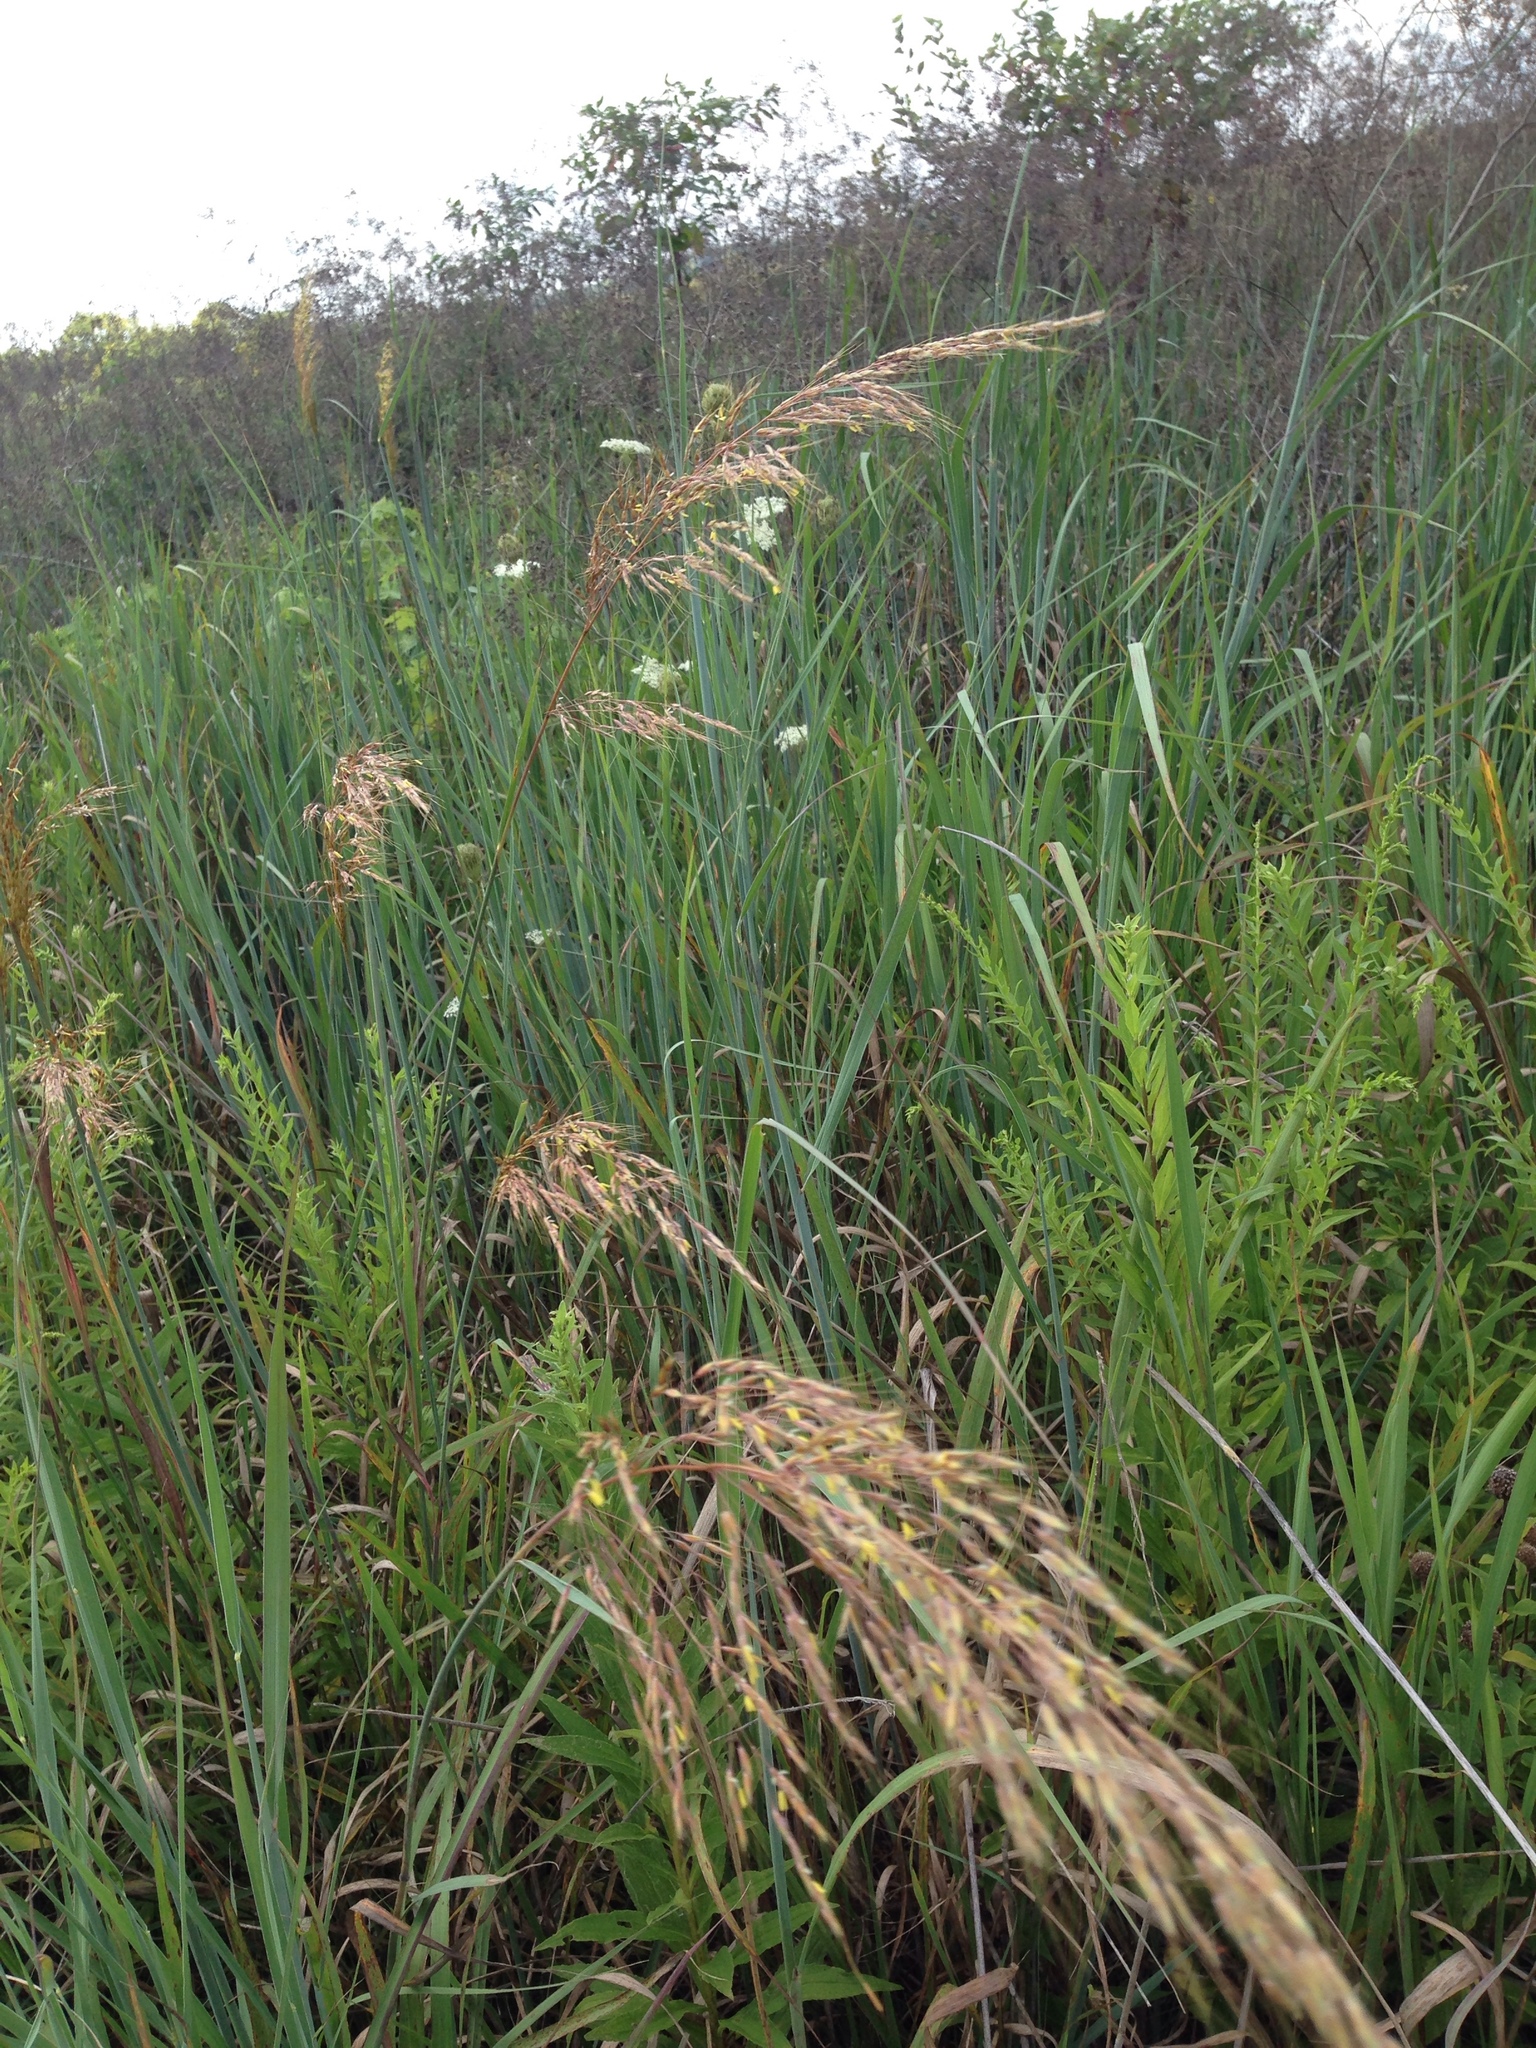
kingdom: Plantae
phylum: Tracheophyta
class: Liliopsida
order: Poales
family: Poaceae
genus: Sorghastrum
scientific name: Sorghastrum nutans
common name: Indian grass
